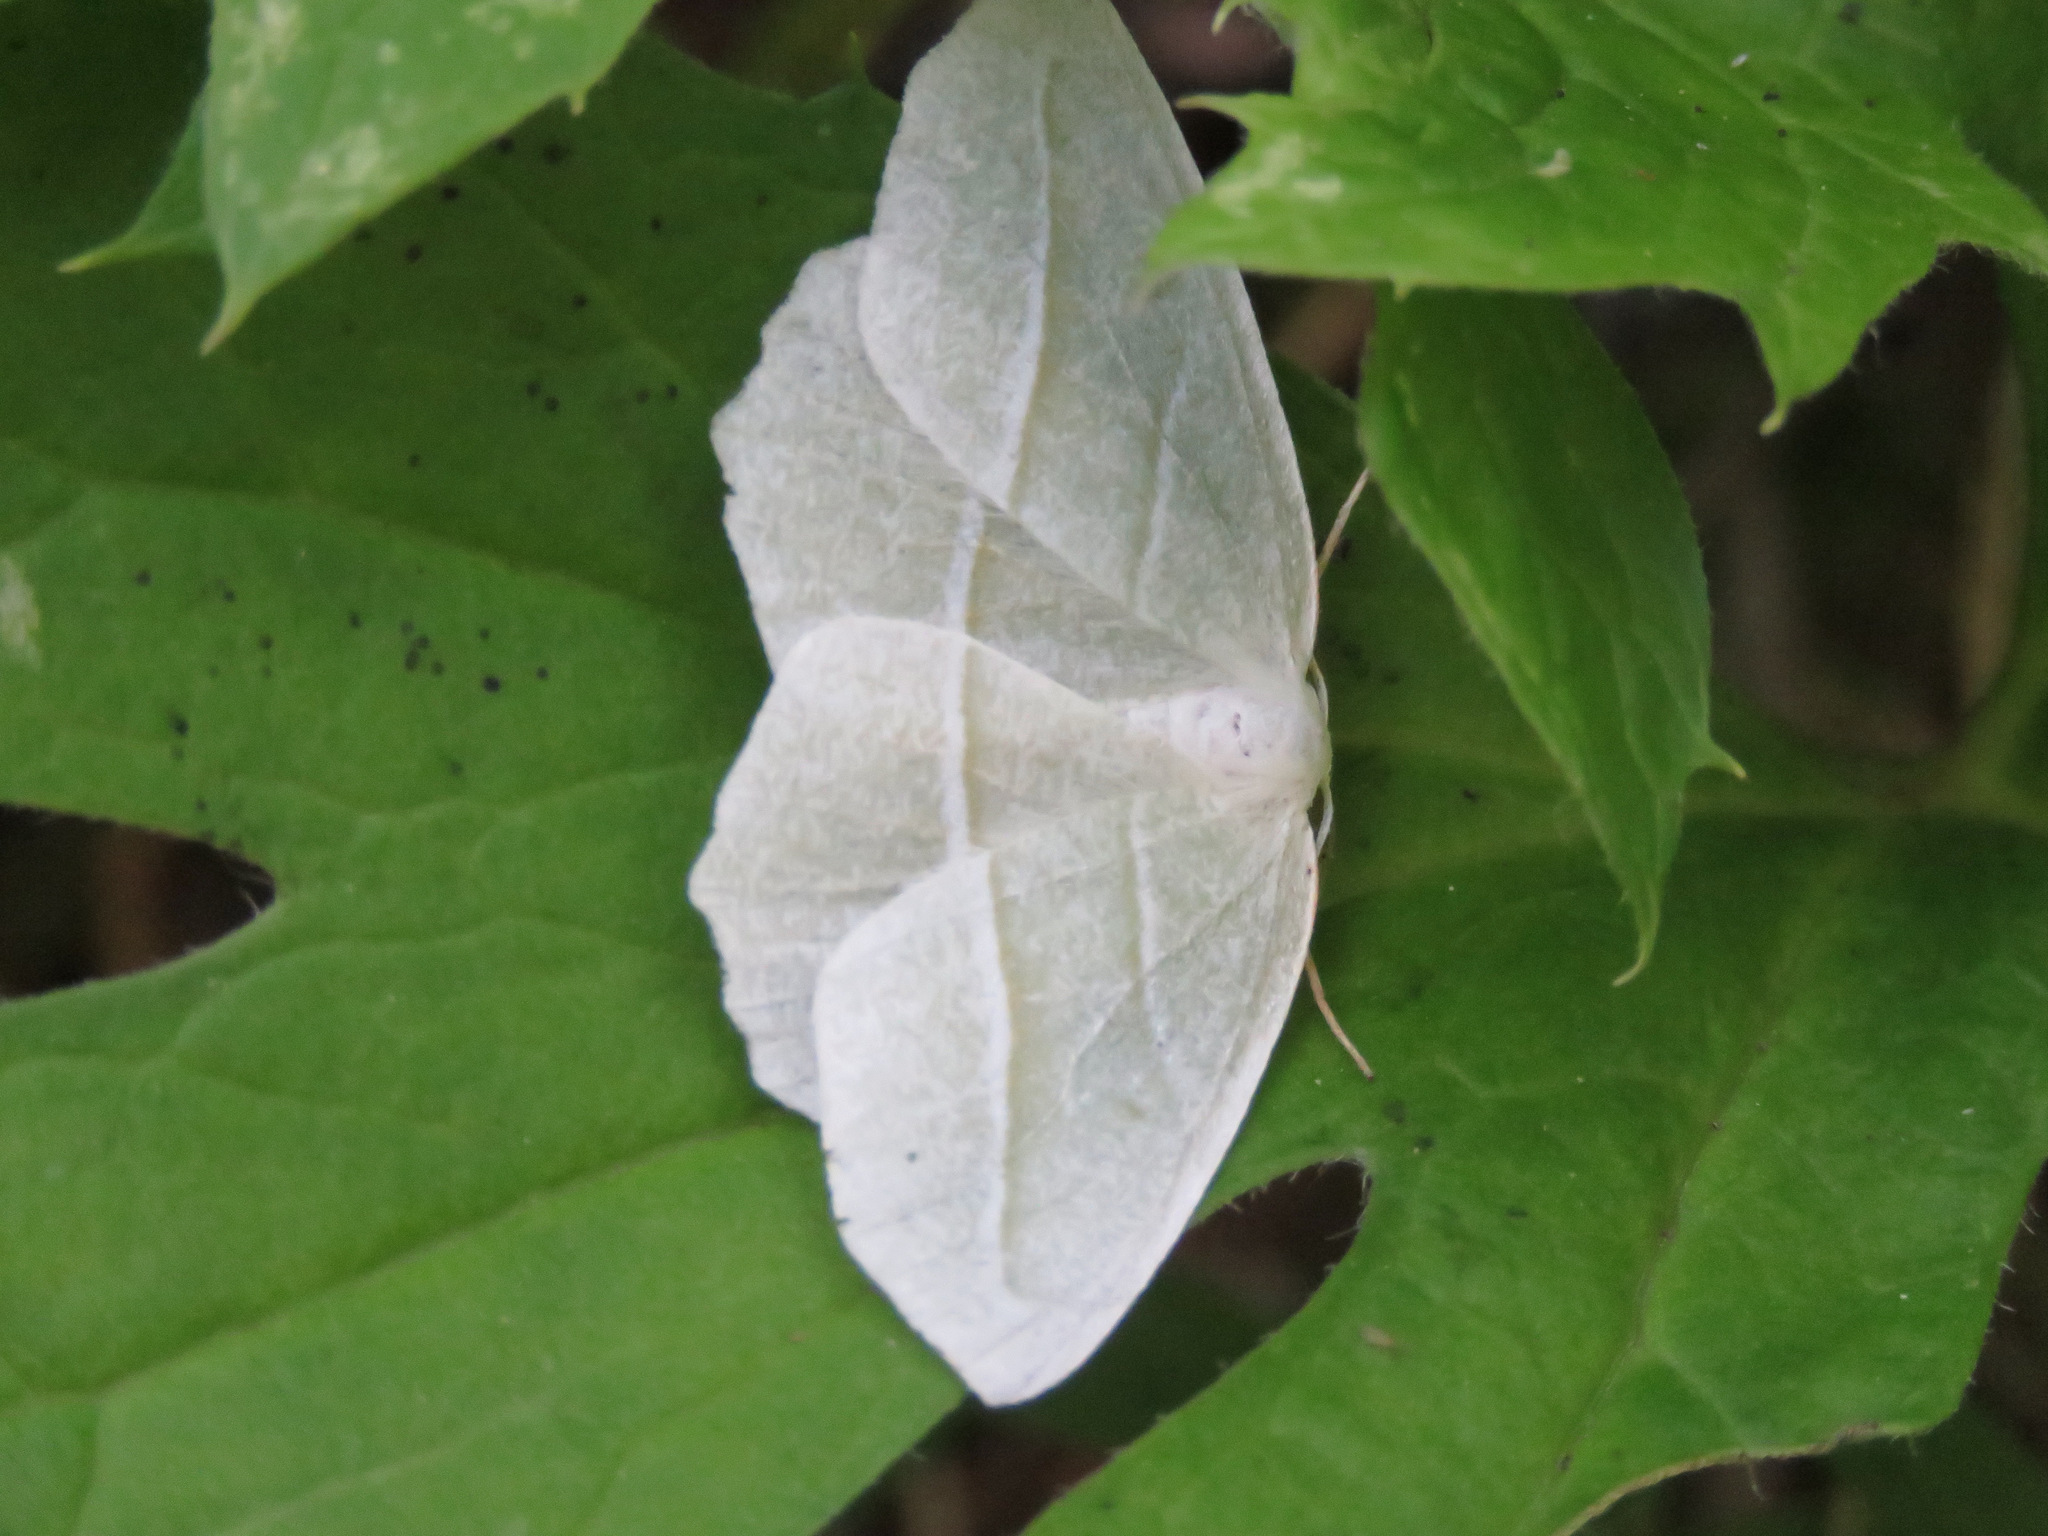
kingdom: Animalia
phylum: Arthropoda
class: Insecta
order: Lepidoptera
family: Geometridae
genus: Campaea
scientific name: Campaea perlata
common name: Fringed looper
